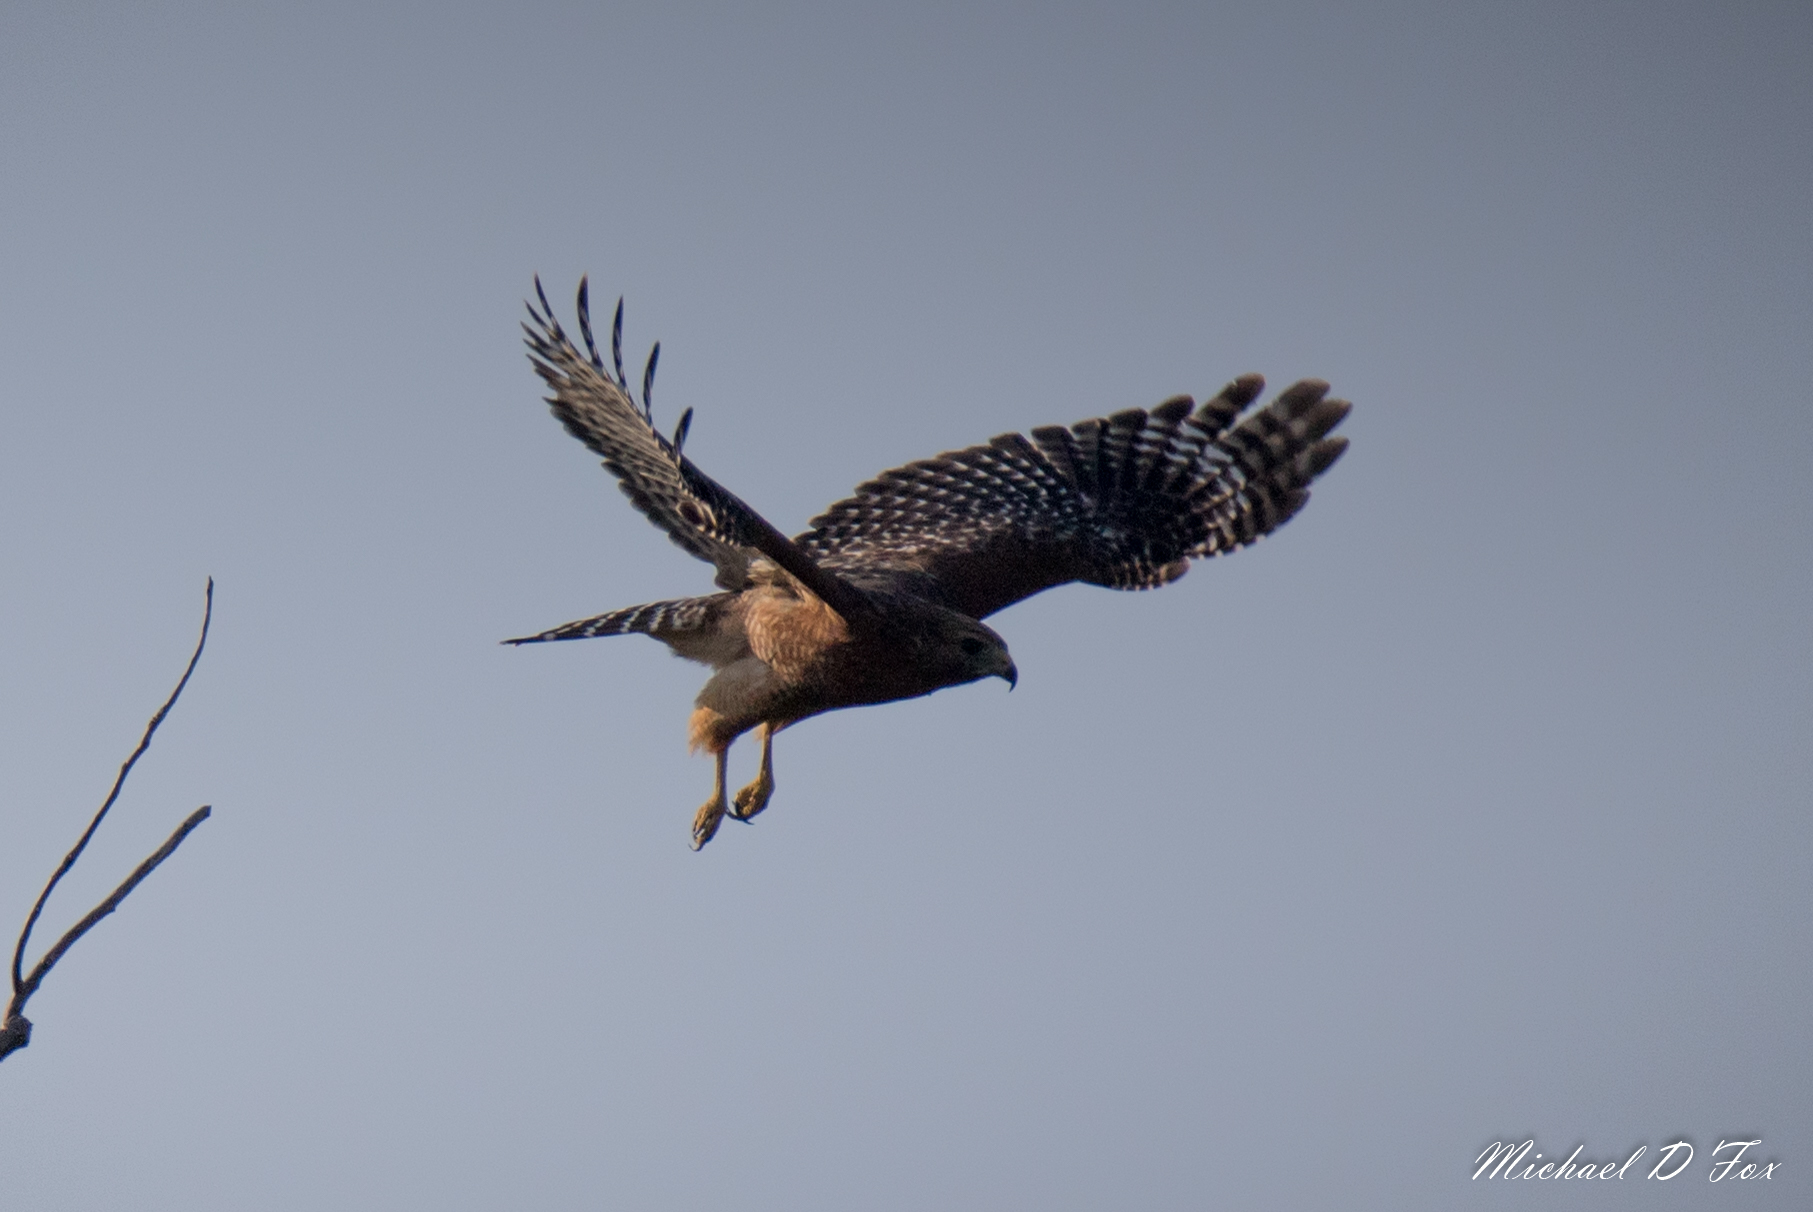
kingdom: Animalia
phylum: Chordata
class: Aves
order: Accipitriformes
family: Accipitridae
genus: Buteo
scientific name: Buteo lineatus
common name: Red-shouldered hawk
